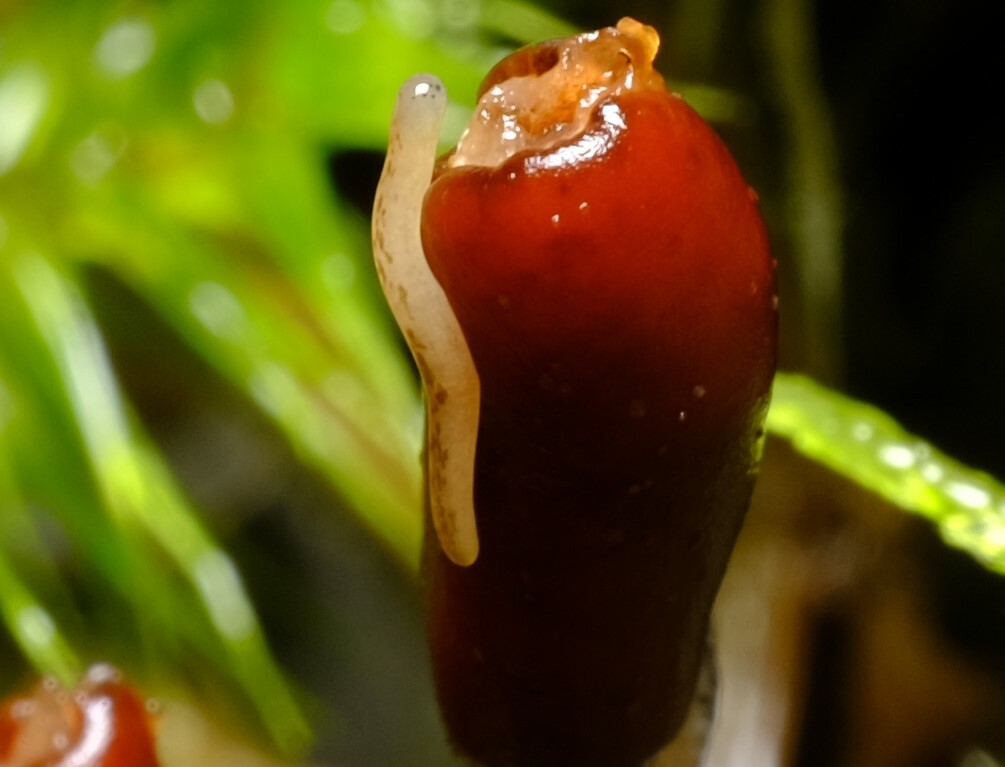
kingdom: Animalia
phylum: Nemertea
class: Hoplonemertea
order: Monostilifera
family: Acteonemertidae
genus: Argonemertes
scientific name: Argonemertes australiensis
